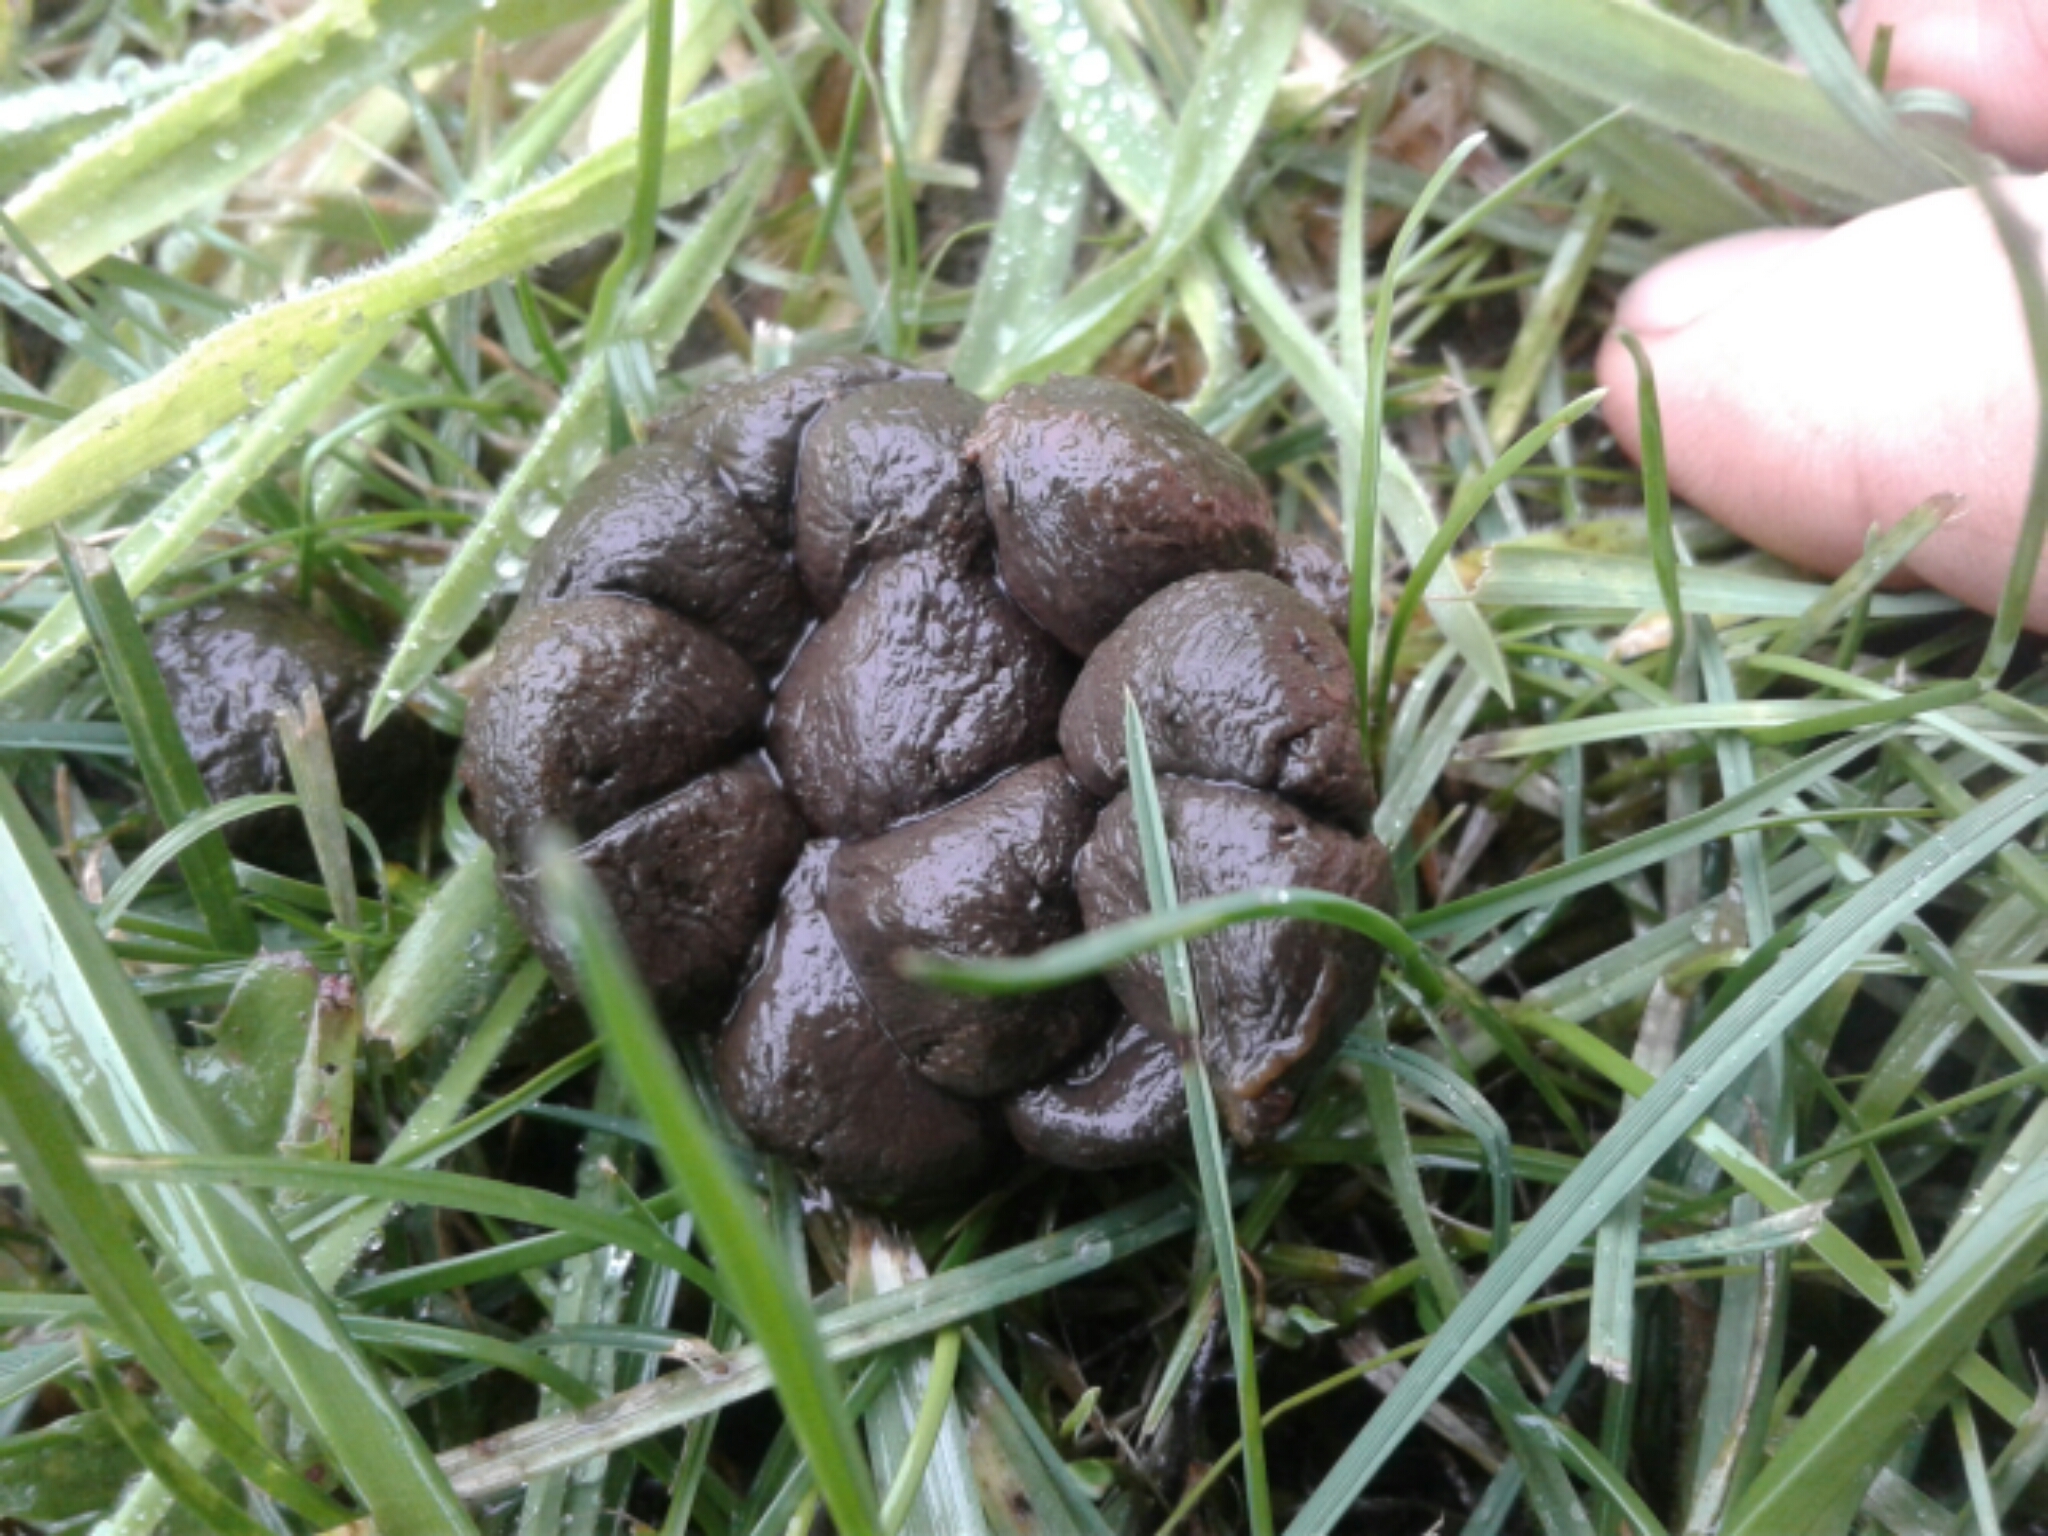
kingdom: Animalia
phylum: Chordata
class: Mammalia
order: Artiodactyla
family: Bovidae
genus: Ovis
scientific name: Ovis aries
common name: Domestic sheep
